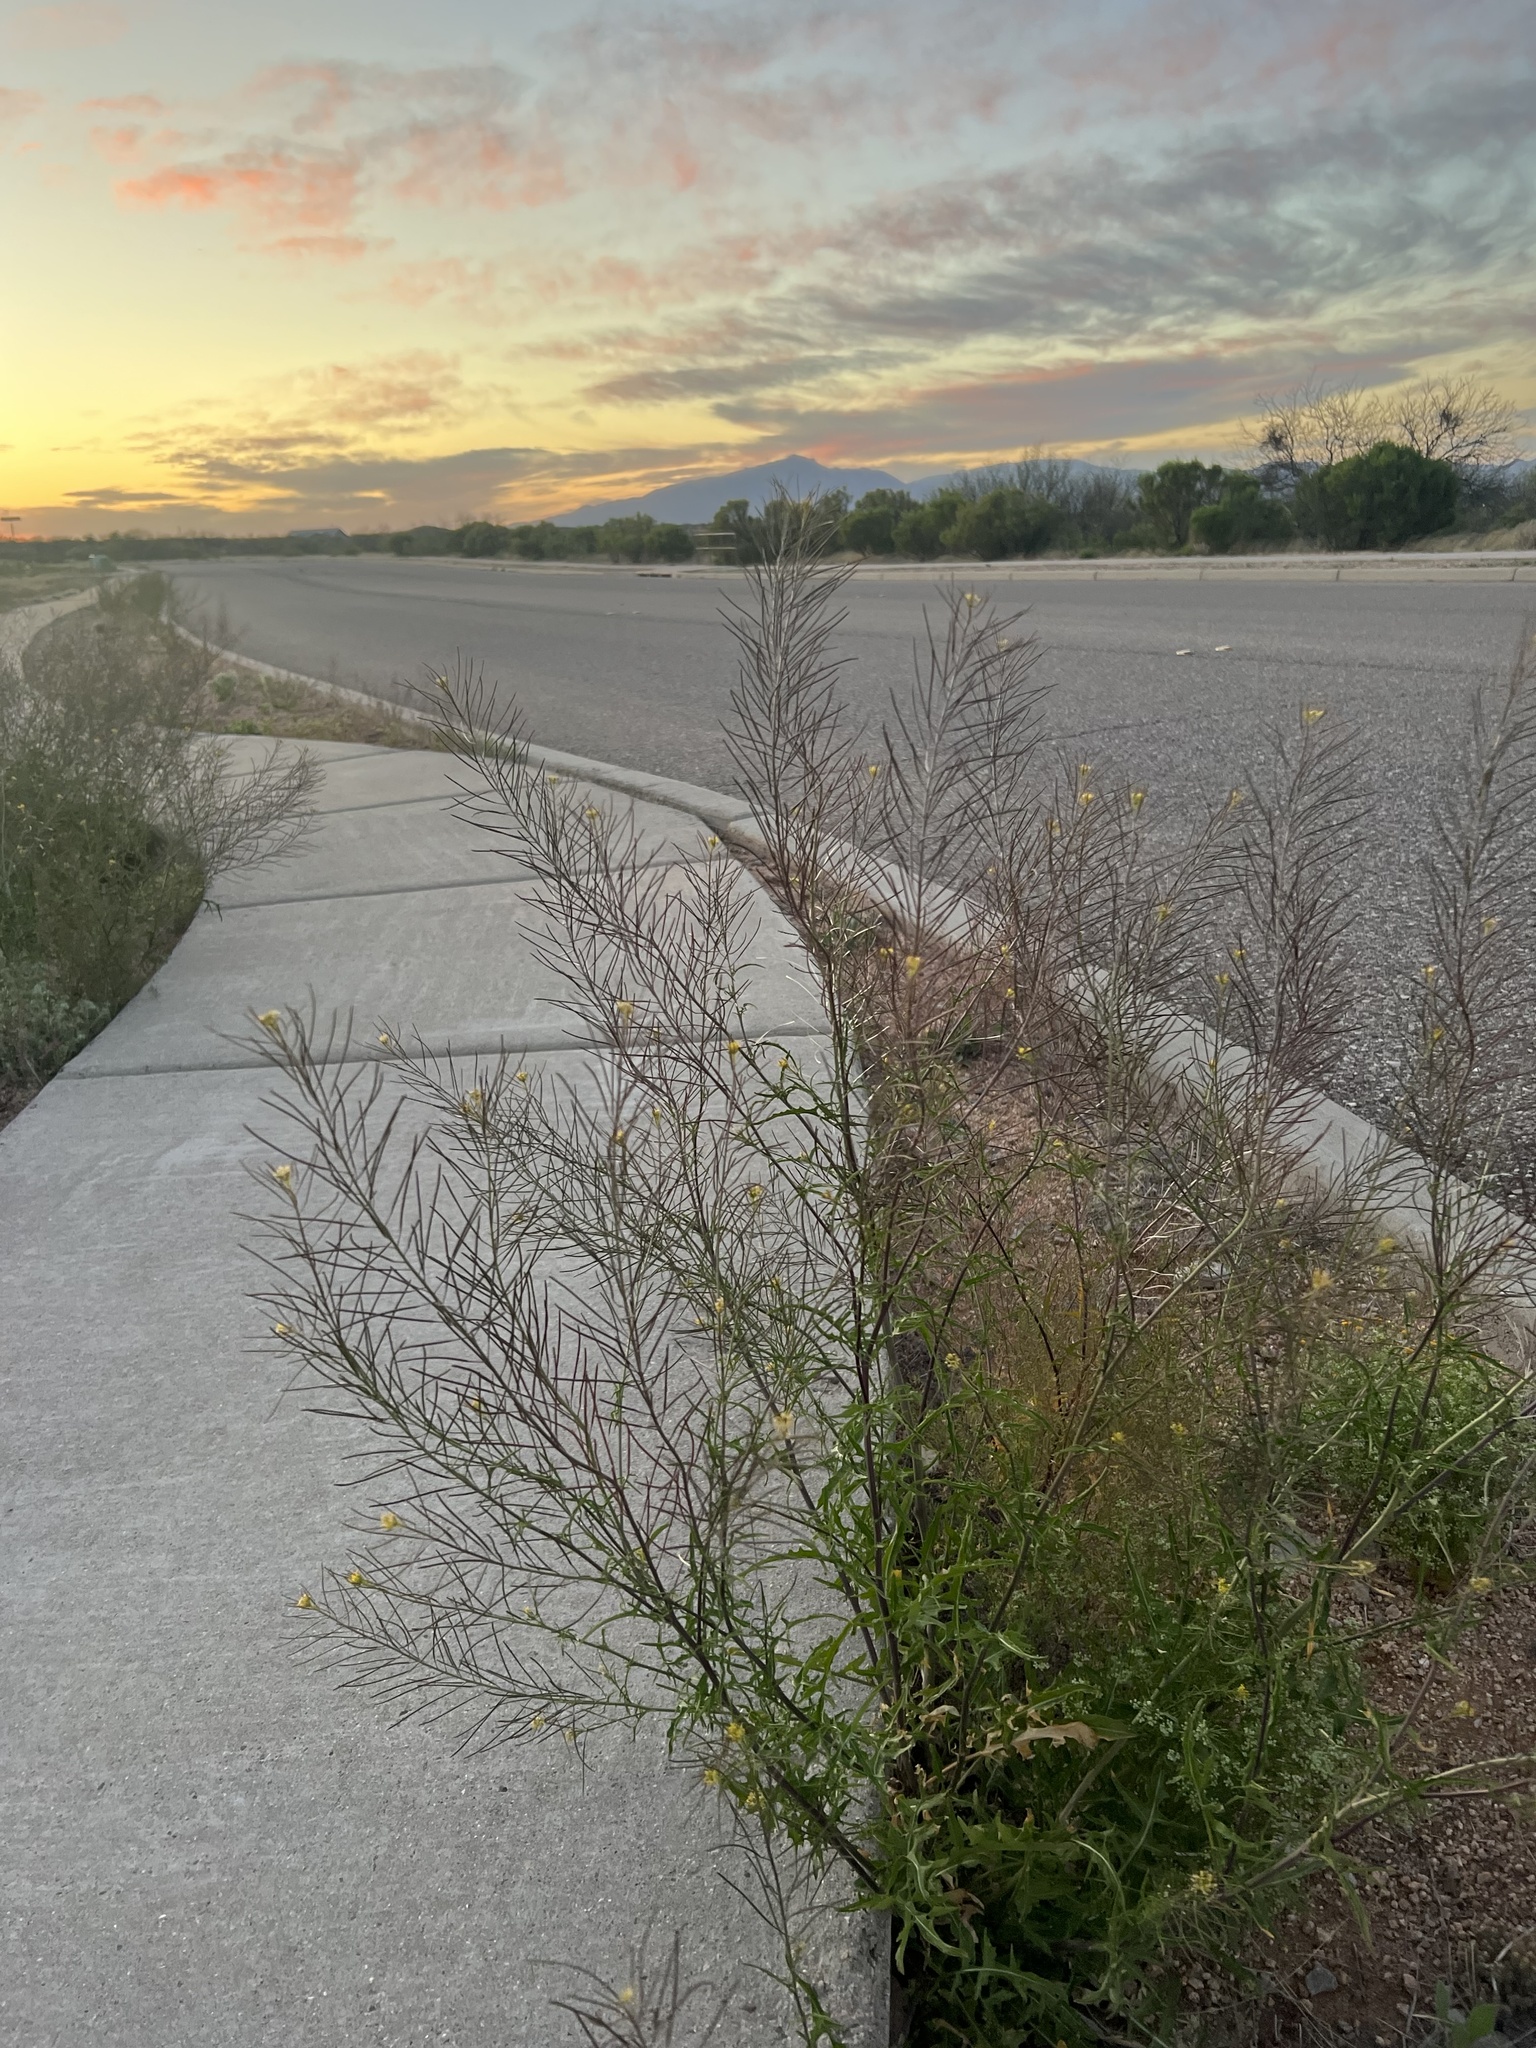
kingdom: Plantae
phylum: Tracheophyta
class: Magnoliopsida
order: Brassicales
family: Brassicaceae
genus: Sisymbrium
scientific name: Sisymbrium irio
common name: London rocket
